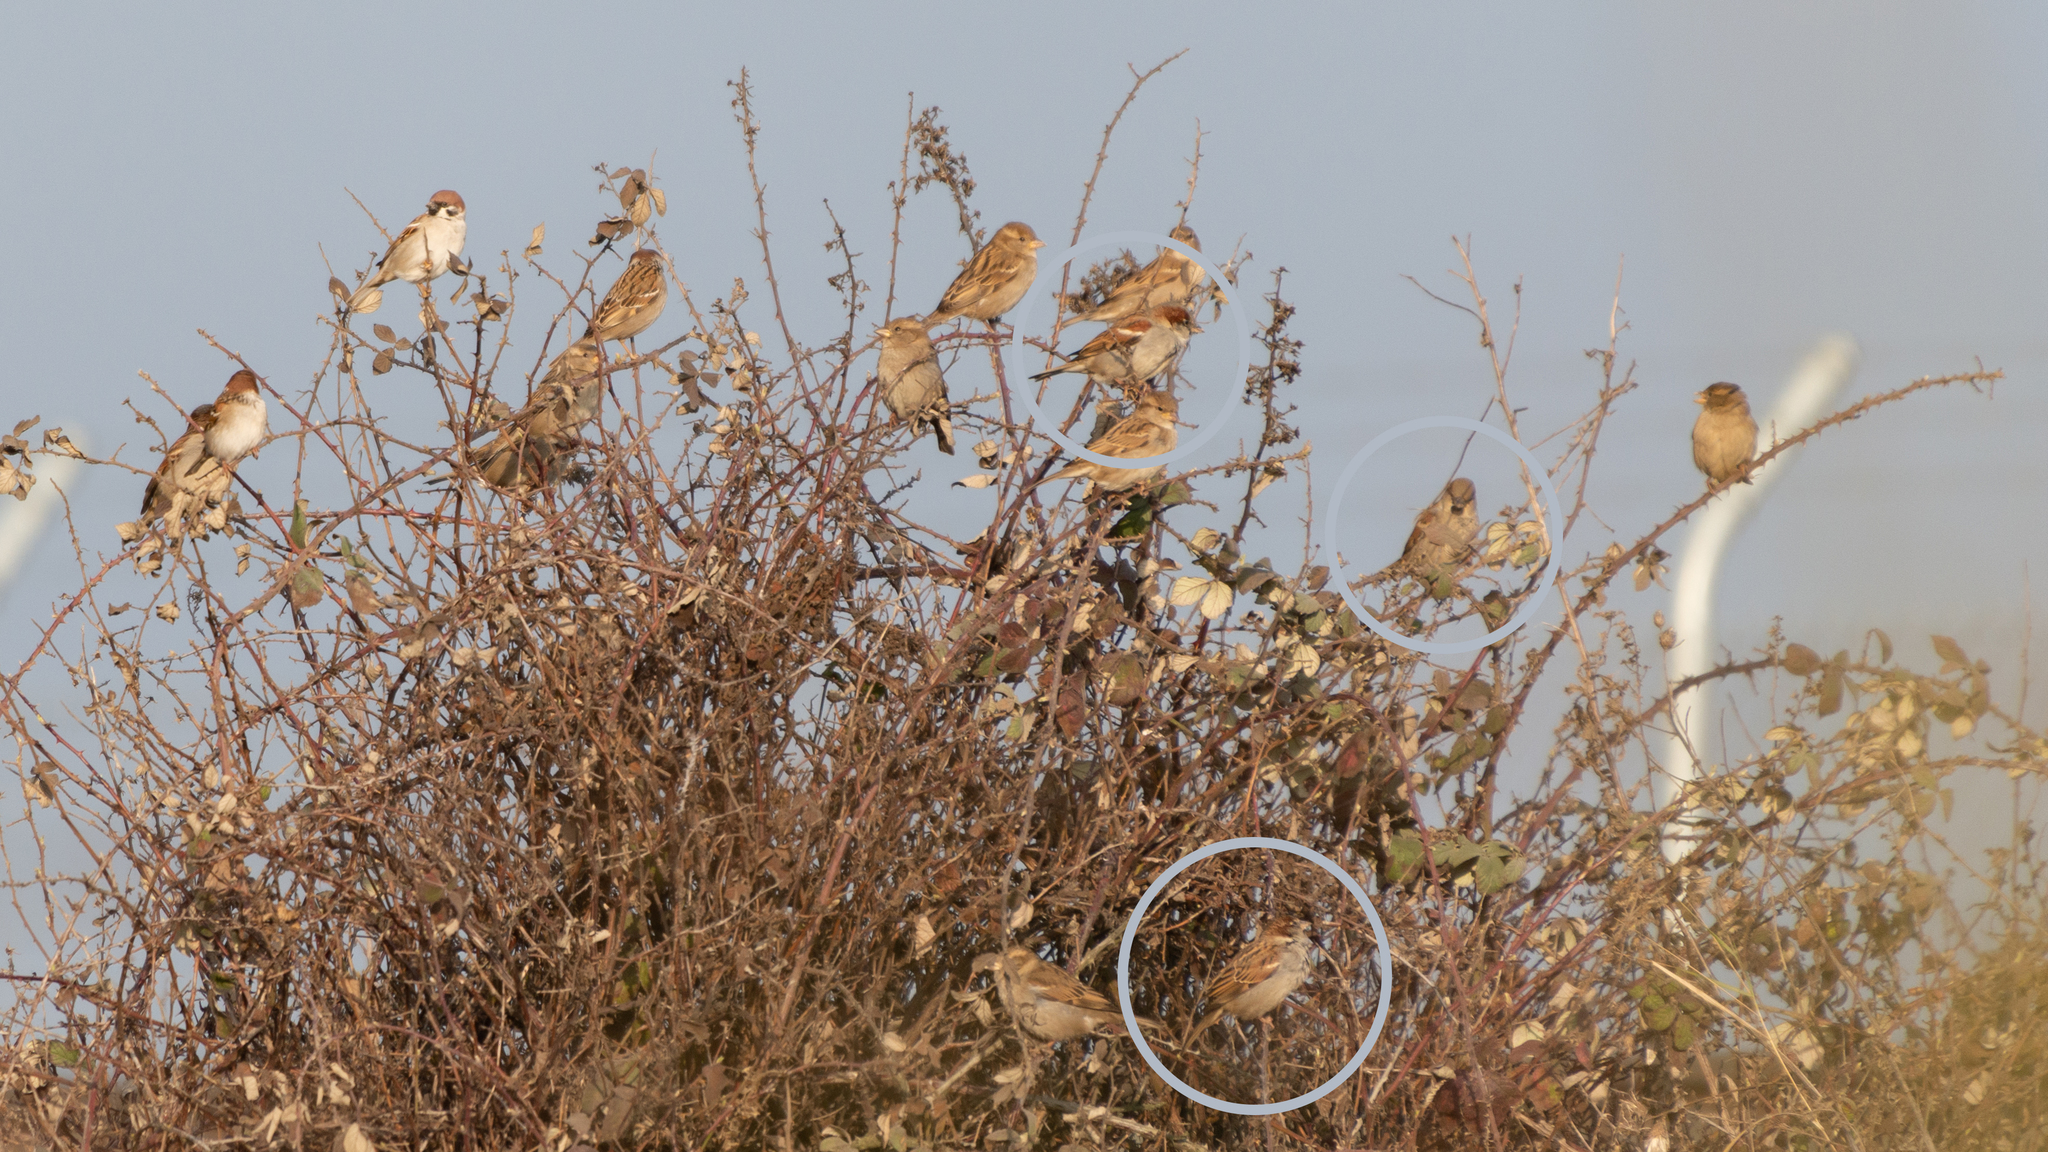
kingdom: Animalia
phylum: Chordata
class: Aves
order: Passeriformes
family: Passeridae
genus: Passer
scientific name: Passer domesticus
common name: House sparrow
